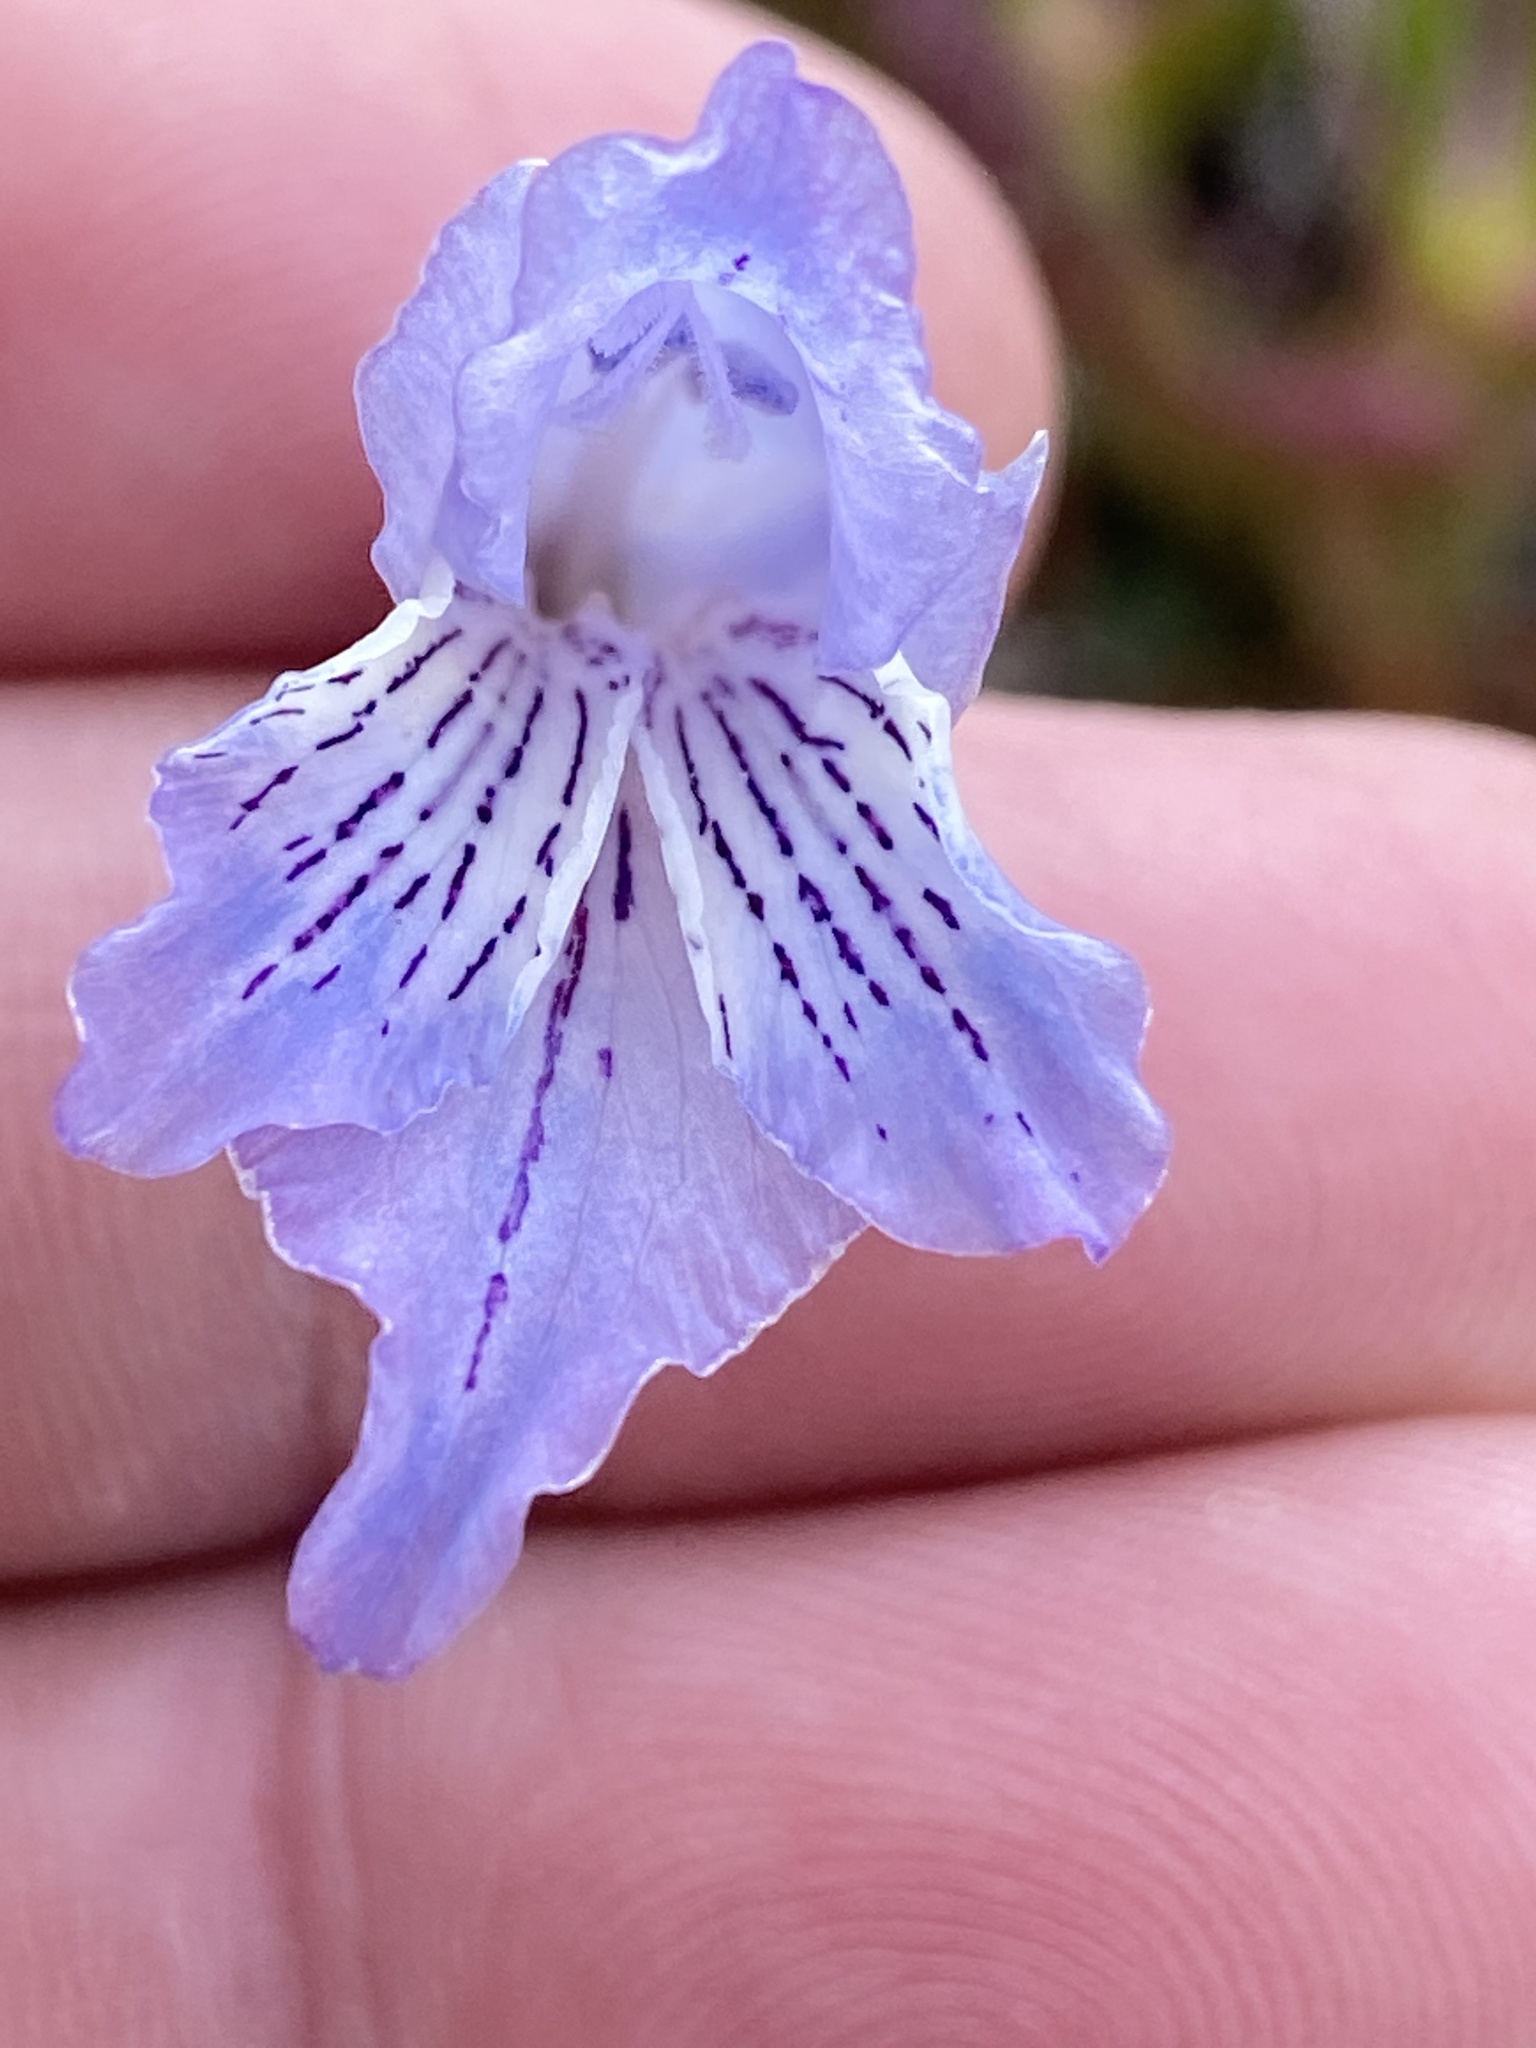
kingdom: Plantae
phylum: Tracheophyta
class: Liliopsida
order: Asparagales
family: Iridaceae
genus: Gladiolus
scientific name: Gladiolus vaginatus
